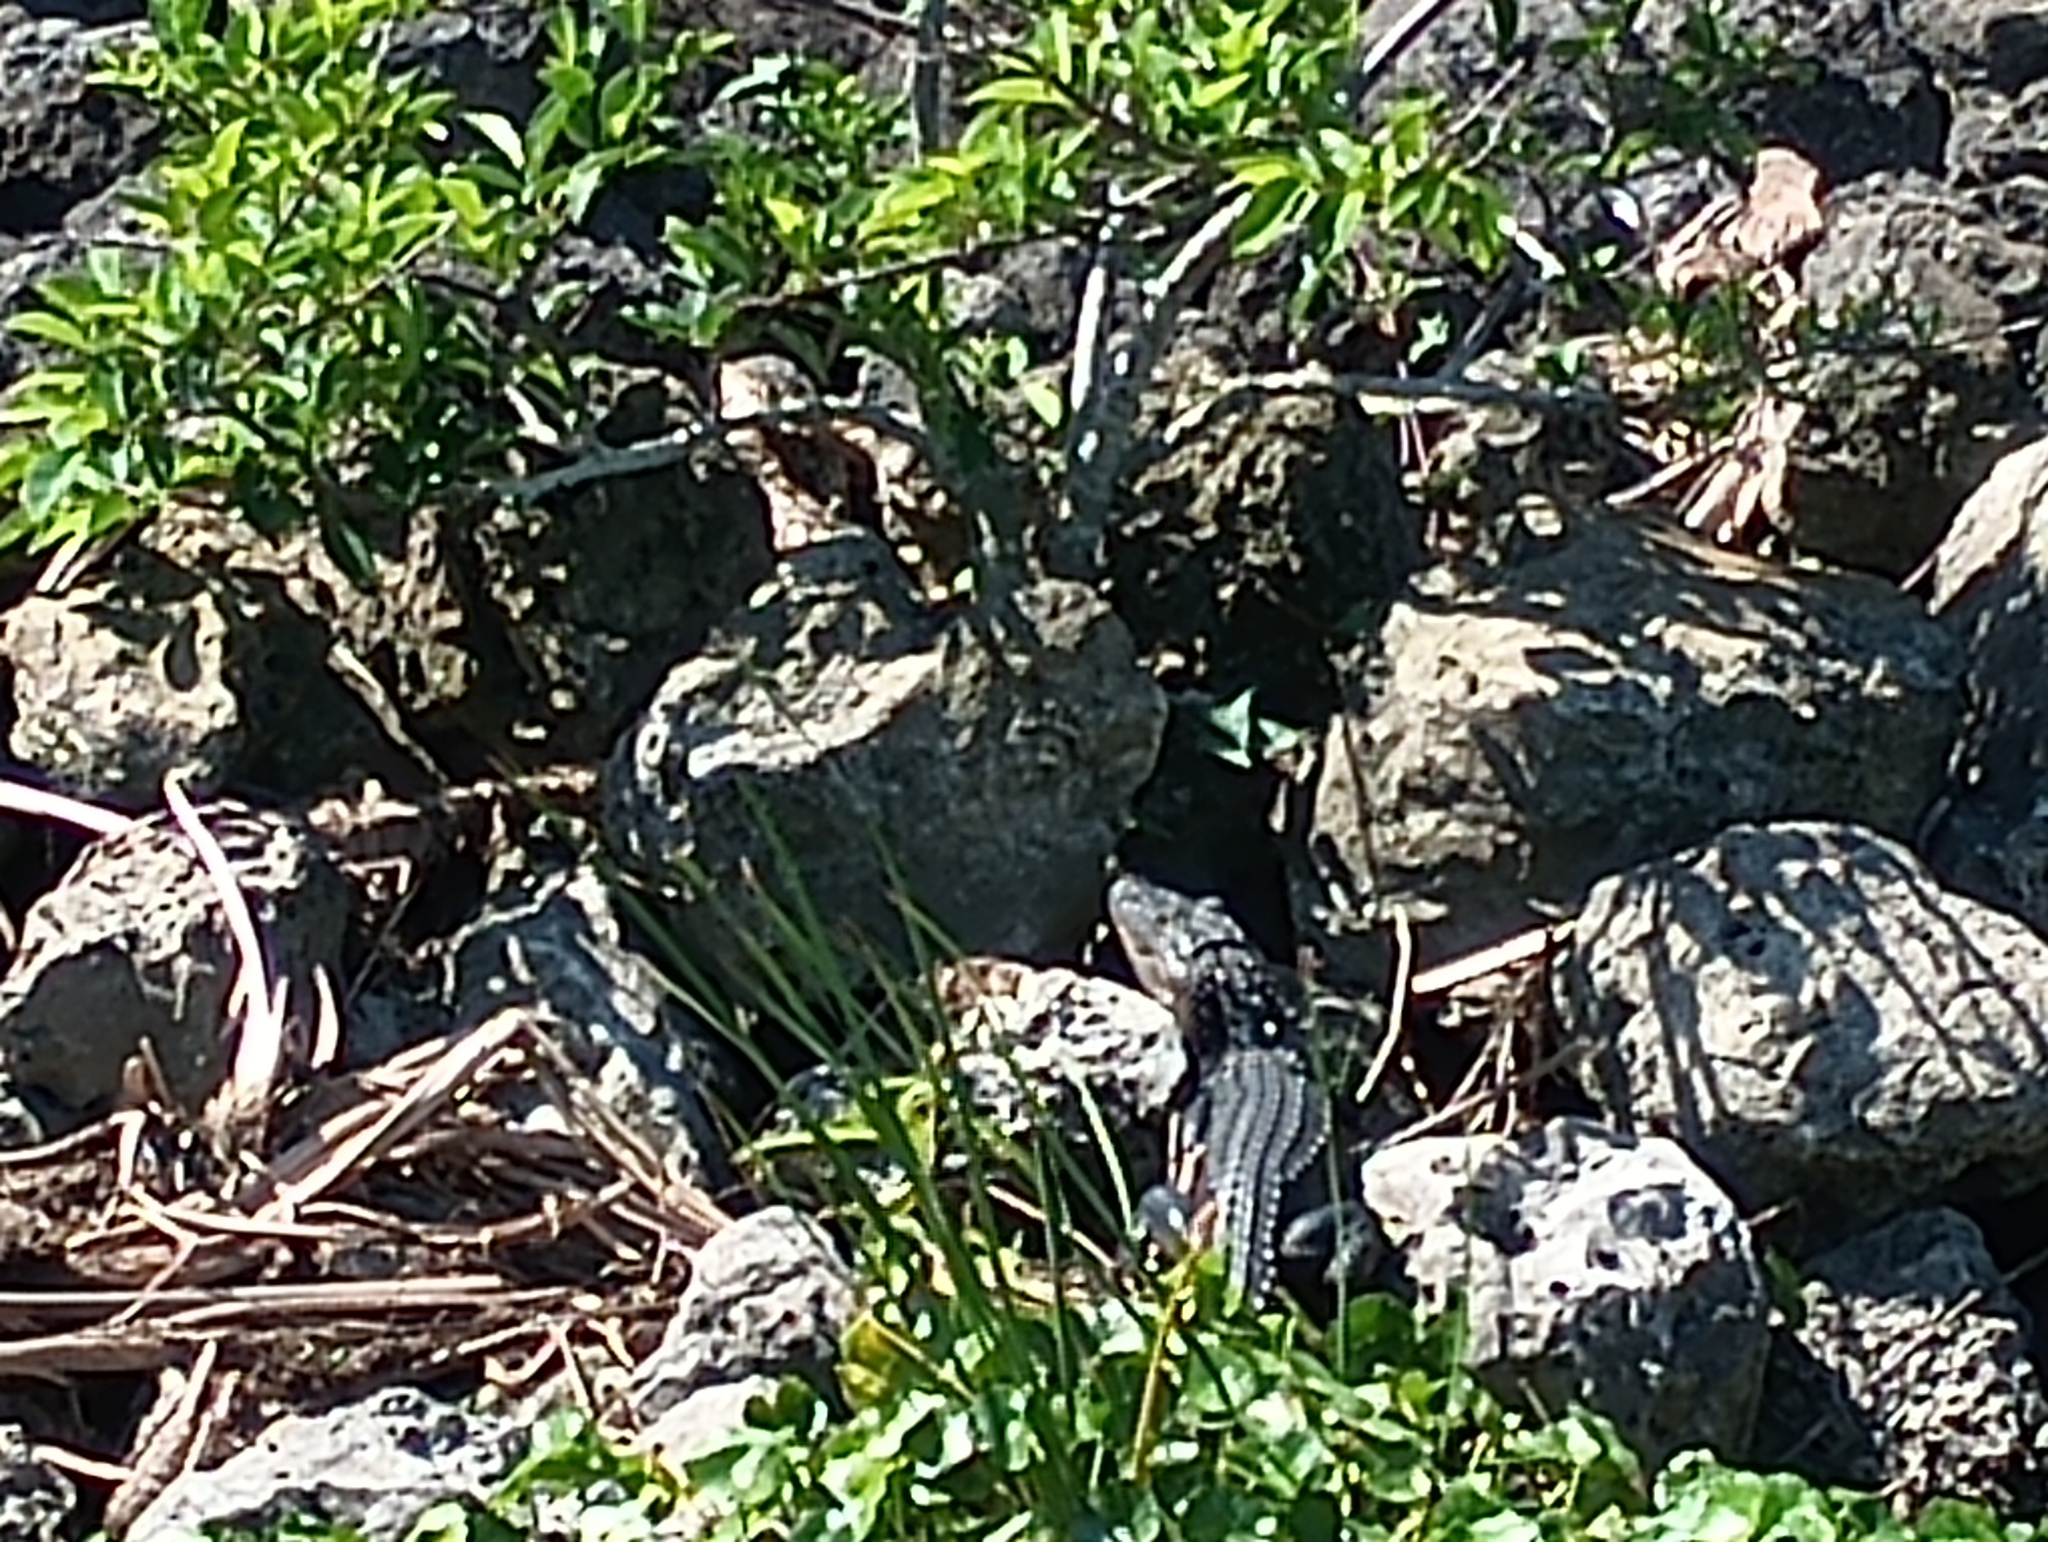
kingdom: Animalia
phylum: Chordata
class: Crocodylia
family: Alligatoridae
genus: Alligator
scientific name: Alligator mississippiensis
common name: American alligator
